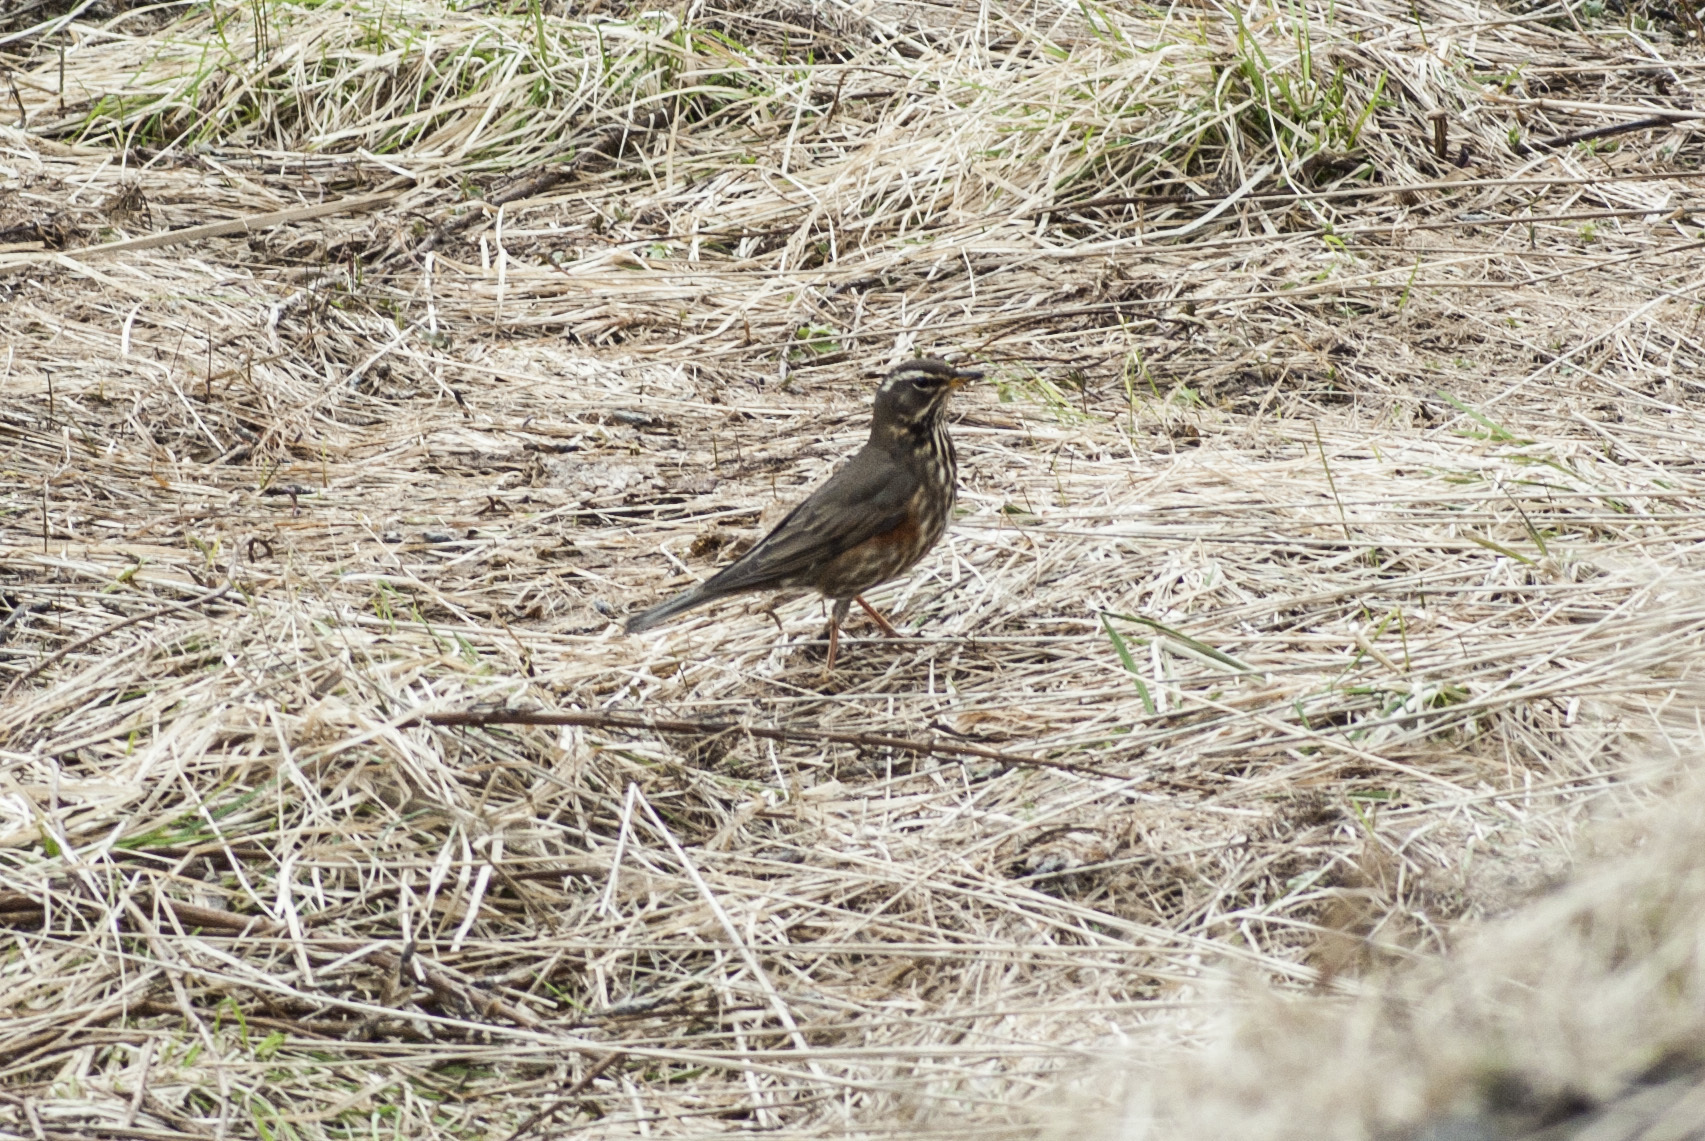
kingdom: Animalia
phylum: Chordata
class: Aves
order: Passeriformes
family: Turdidae
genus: Turdus
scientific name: Turdus iliacus
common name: Redwing
